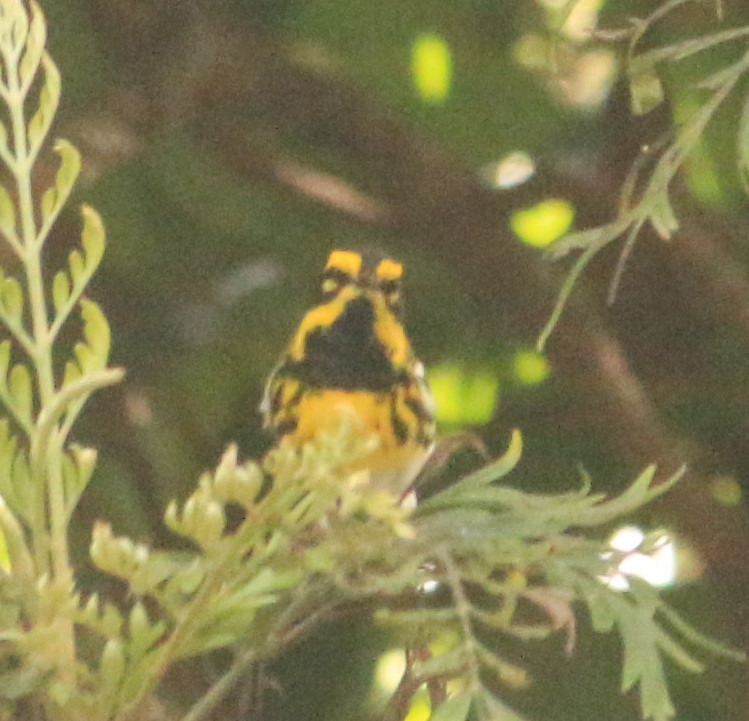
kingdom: Animalia
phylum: Chordata
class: Aves
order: Passeriformes
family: Parulidae
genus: Setophaga
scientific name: Setophaga townsendi
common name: Townsend's warbler
